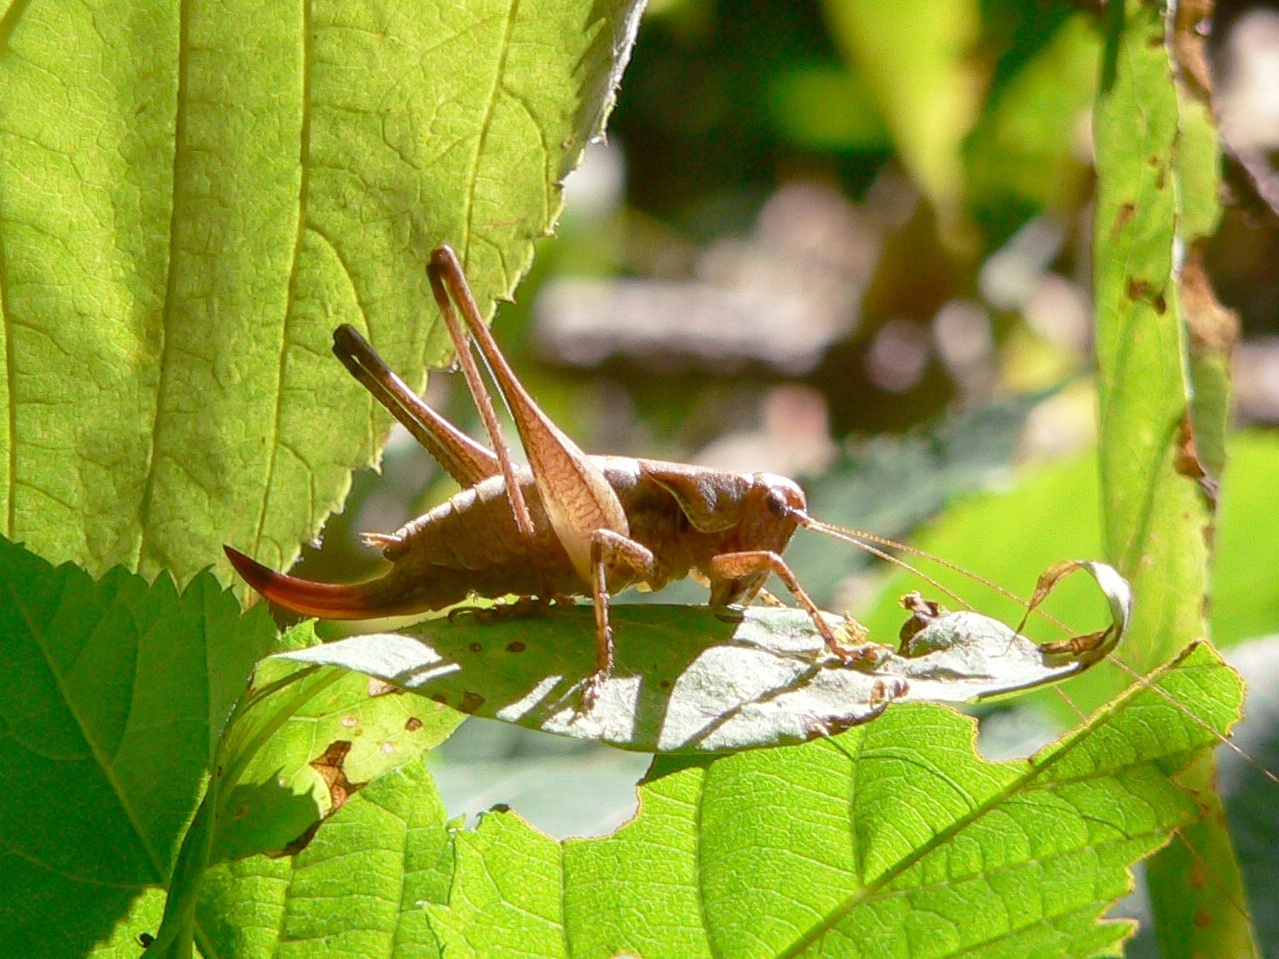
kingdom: Animalia
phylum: Arthropoda
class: Insecta
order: Orthoptera
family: Tettigoniidae
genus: Pholidoptera
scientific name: Pholidoptera griseoaptera
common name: Dark bush-cricket
